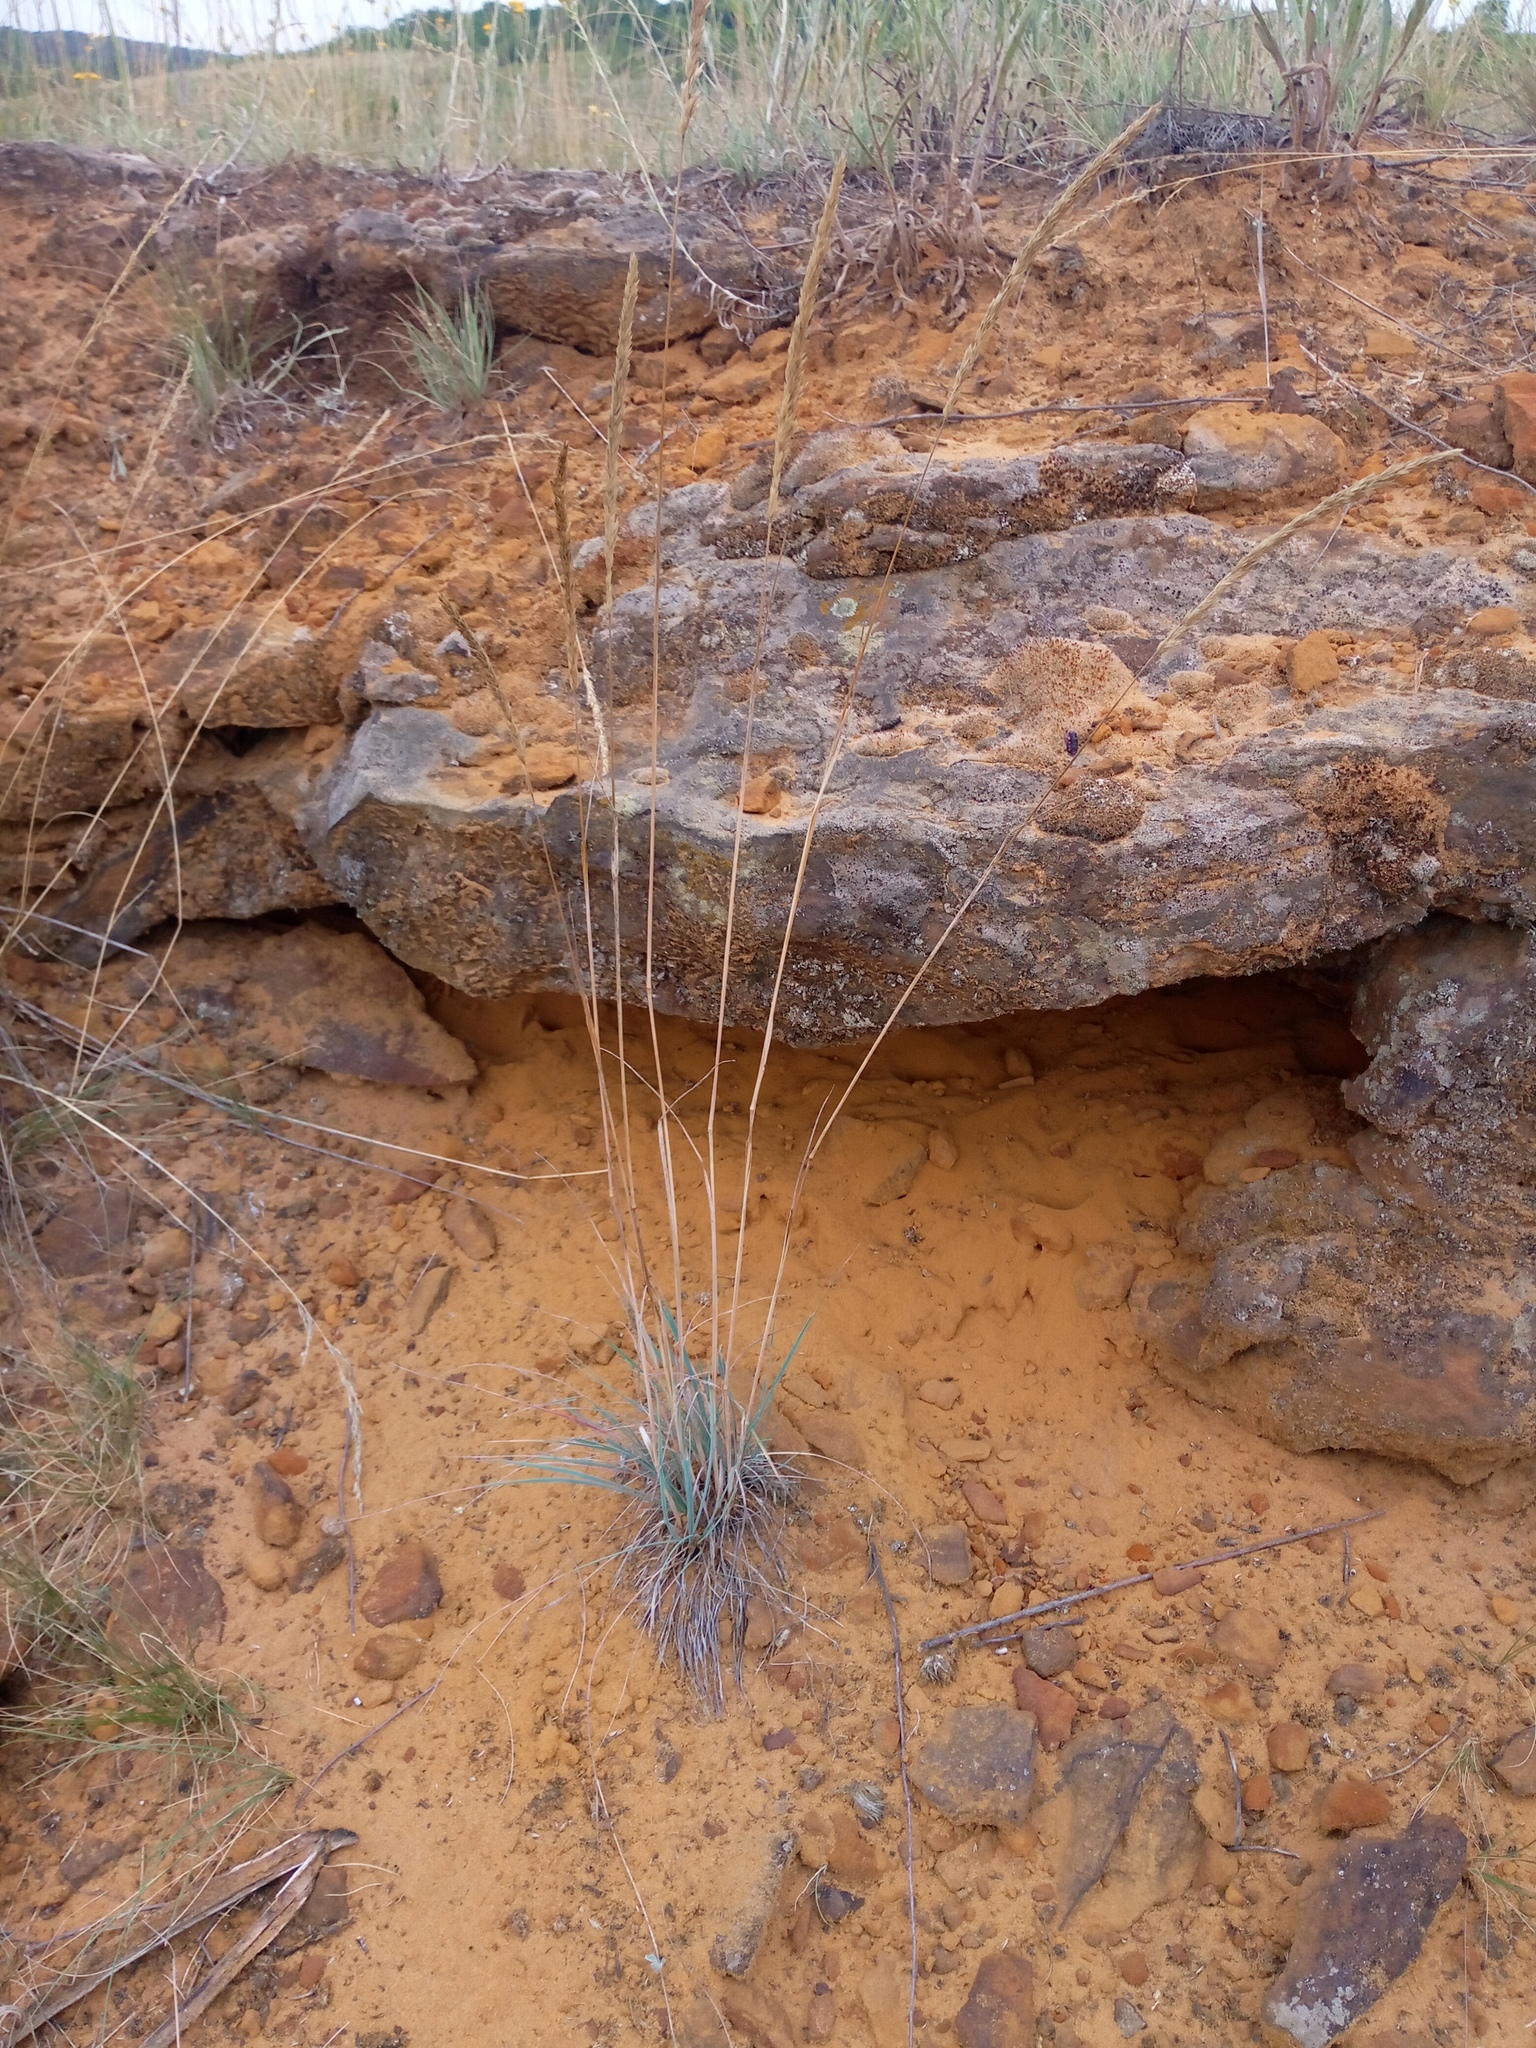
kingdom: Plantae
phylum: Tracheophyta
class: Liliopsida
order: Poales
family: Poaceae
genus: Koeleria
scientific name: Koeleria glauca
